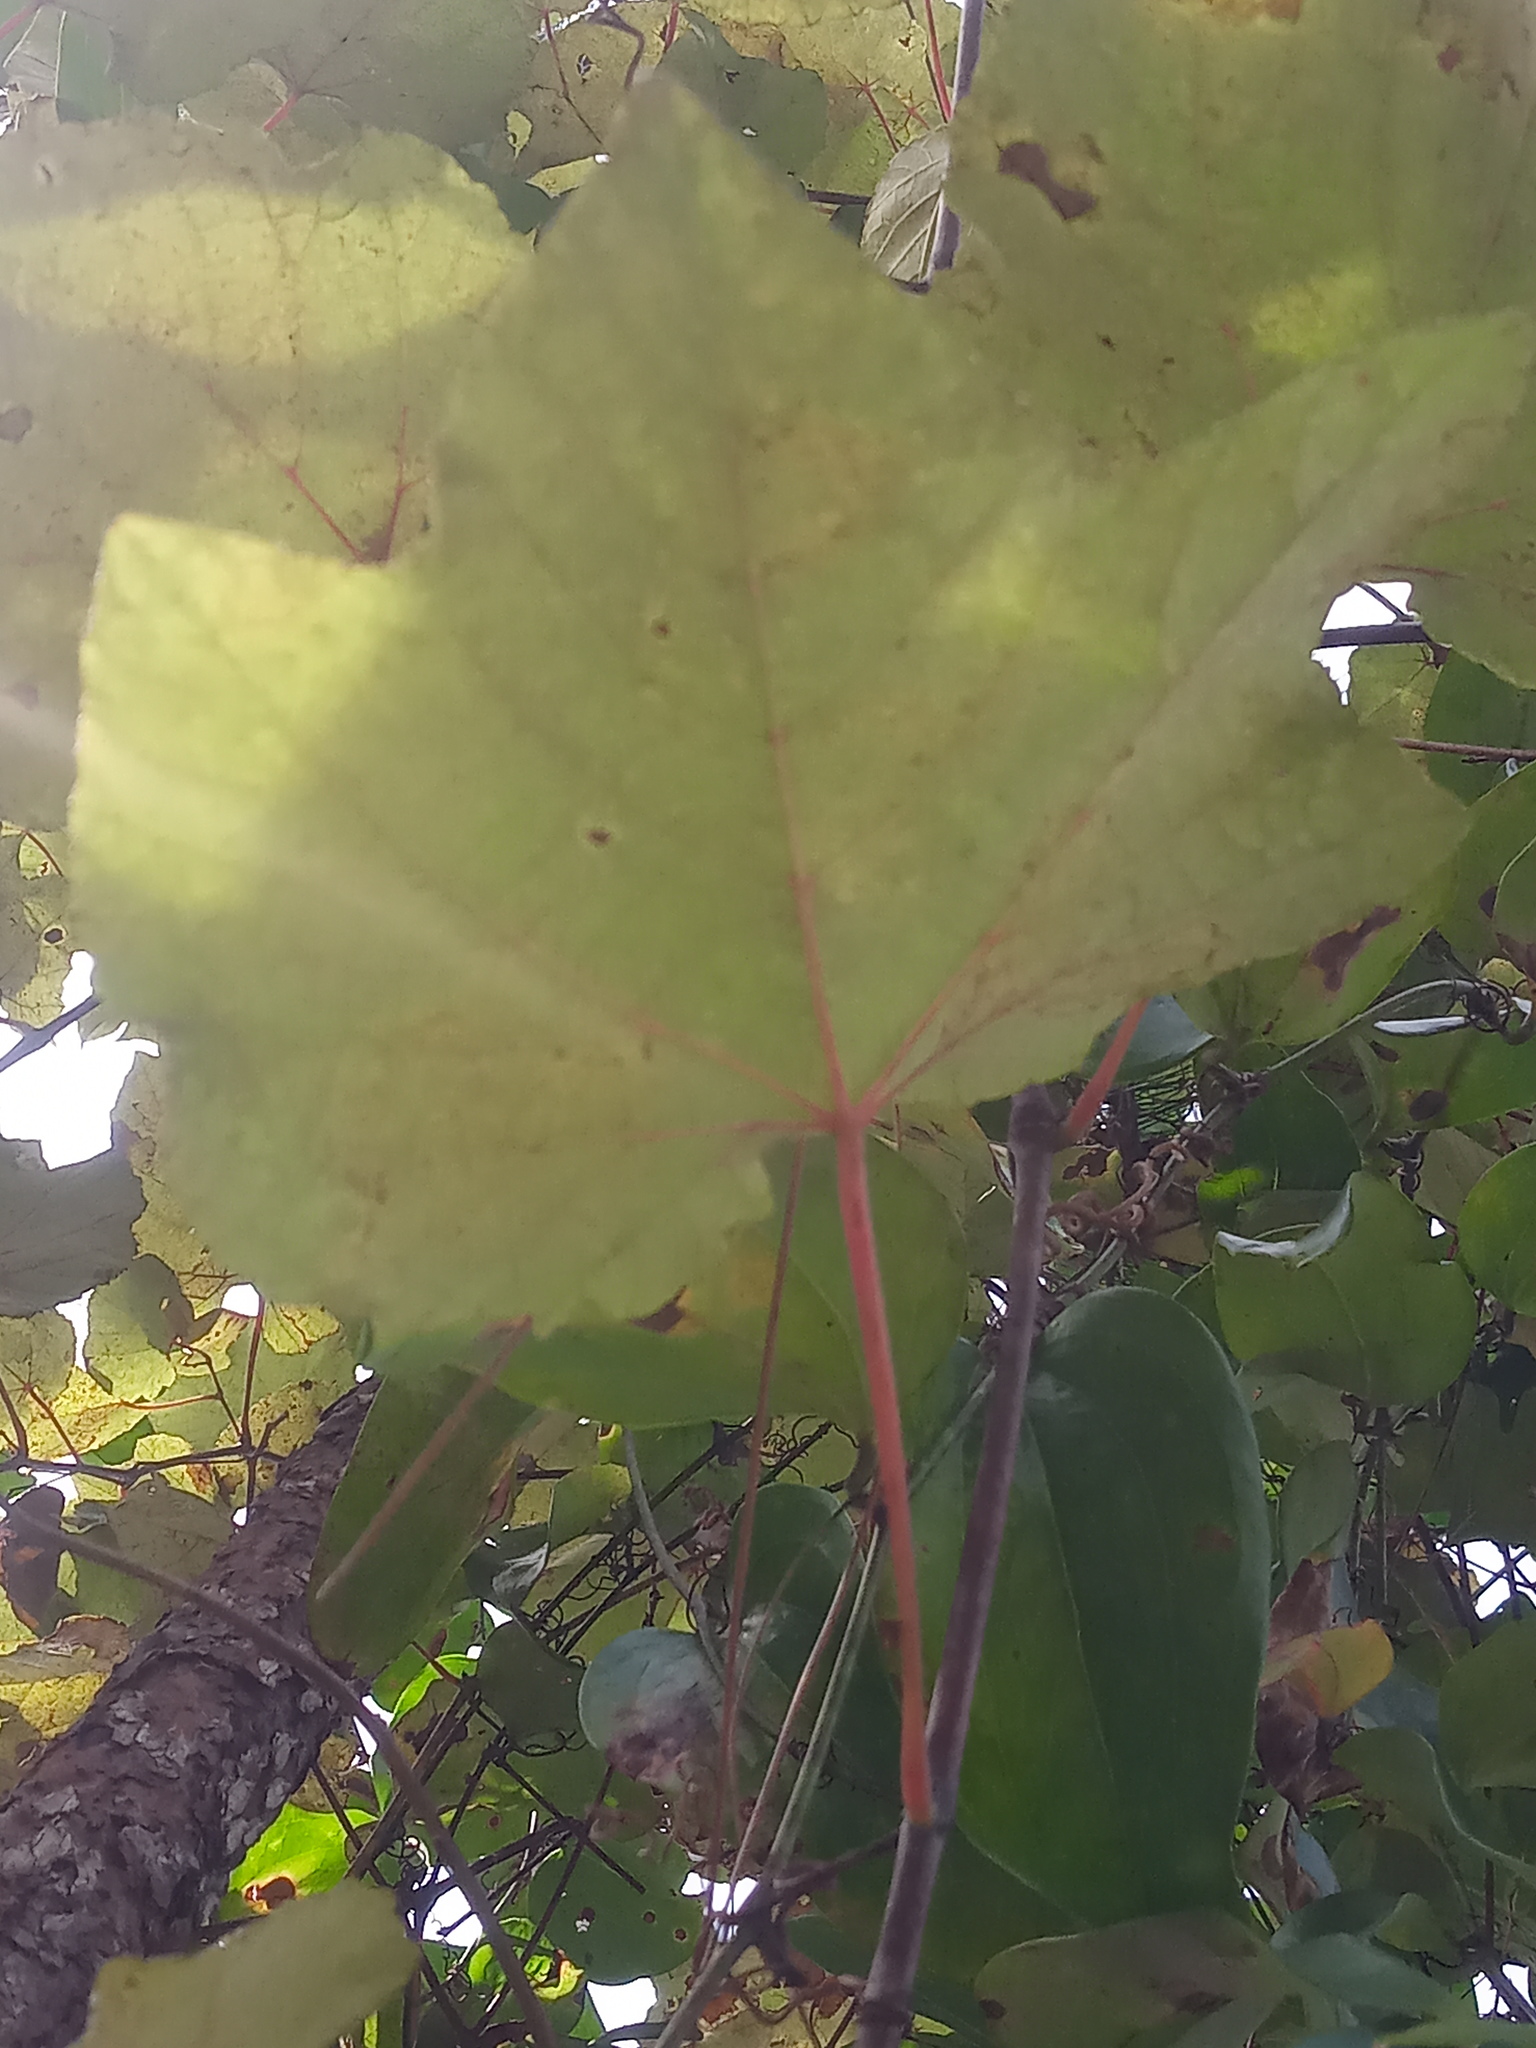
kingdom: Plantae
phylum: Tracheophyta
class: Magnoliopsida
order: Vitales
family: Vitaceae
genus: Vitis
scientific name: Vitis aestivalis
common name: Pigeon grape
